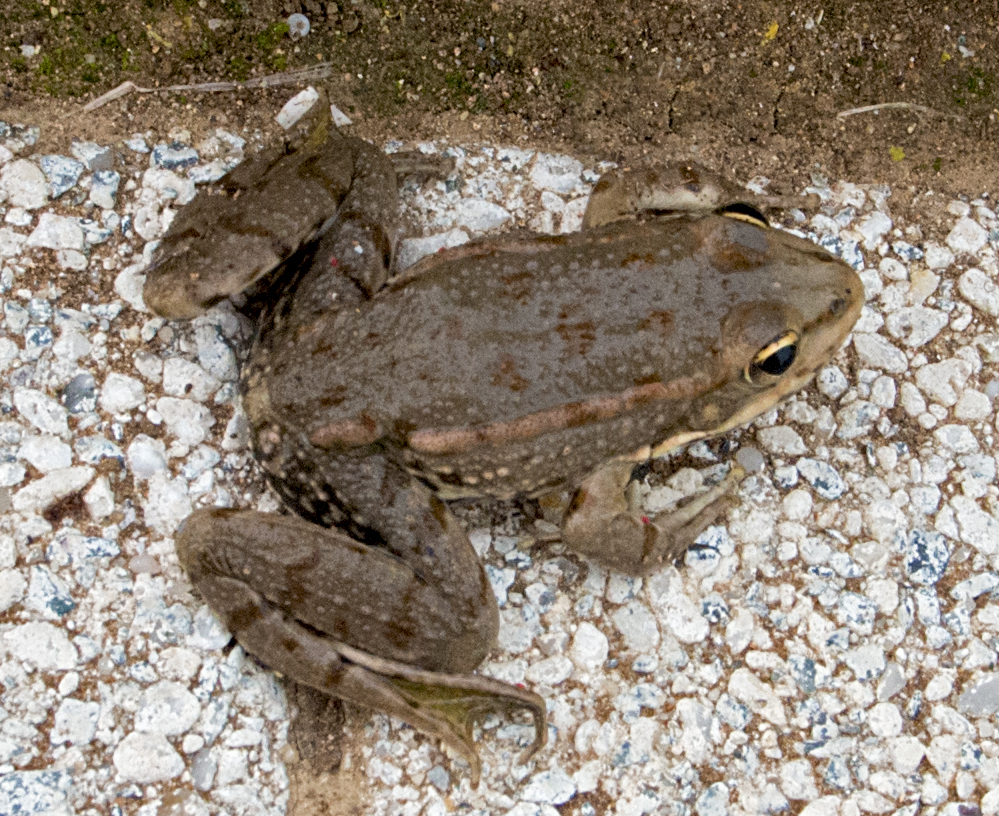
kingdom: Animalia
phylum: Chordata
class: Amphibia
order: Anura
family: Ranidae
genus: Pelophylax
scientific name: Pelophylax
